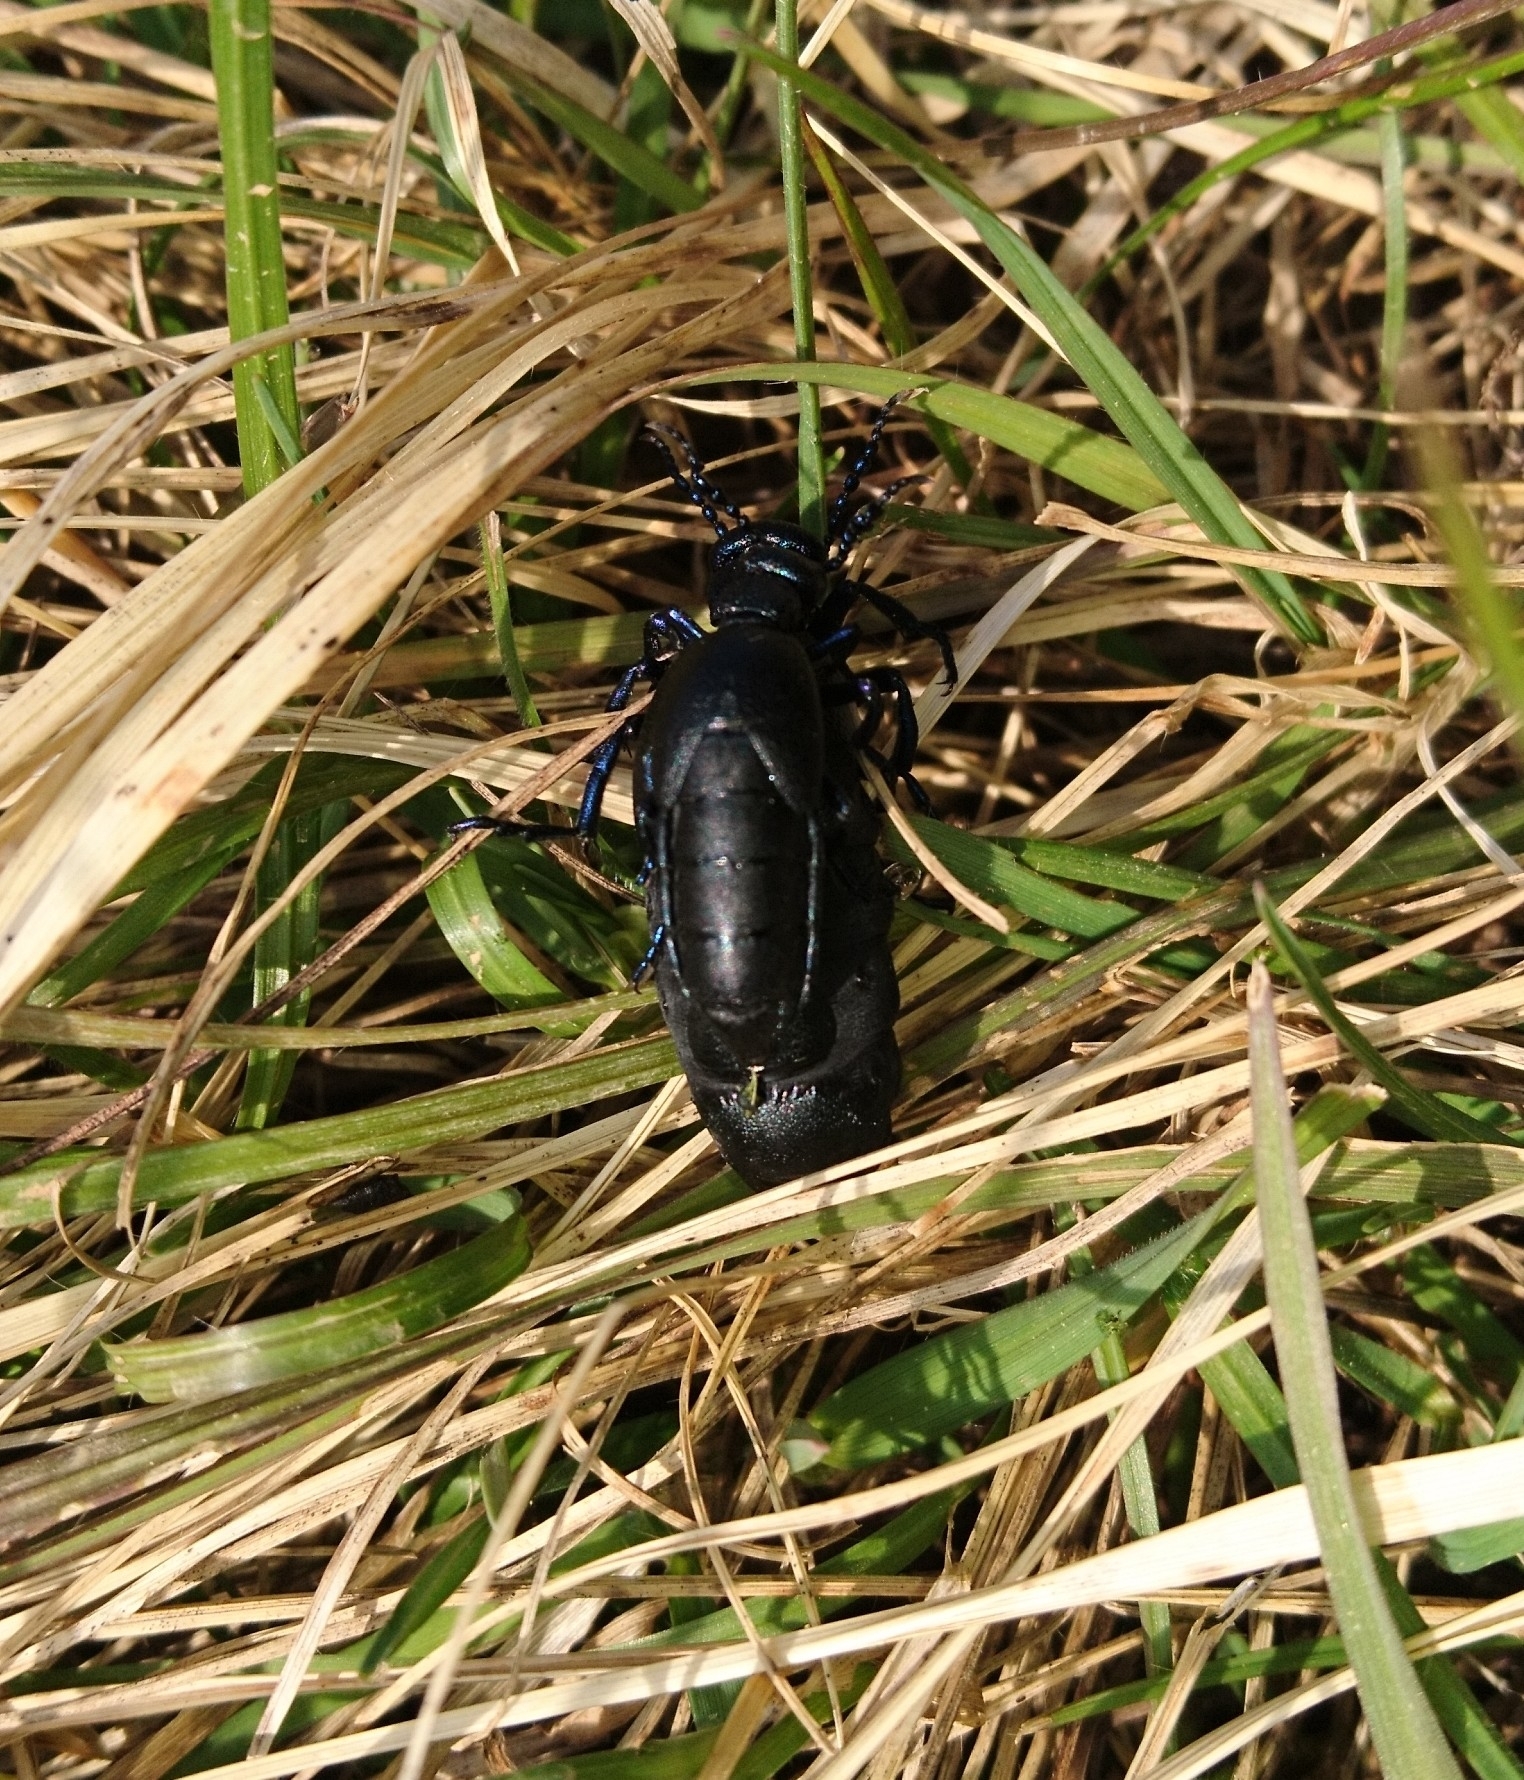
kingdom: Animalia
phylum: Arthropoda
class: Insecta
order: Coleoptera
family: Meloidae
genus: Meloe
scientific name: Meloe proscarabaeus
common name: Black oil-beetle
